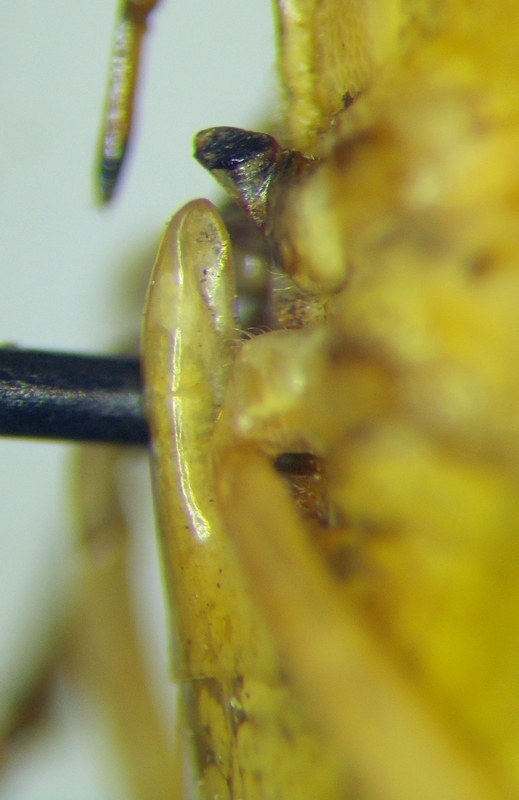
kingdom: Animalia
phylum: Arthropoda
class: Insecta
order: Hemiptera
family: Pentatomidae
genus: Piezodorus
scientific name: Piezodorus lituratus
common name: Stink bug
